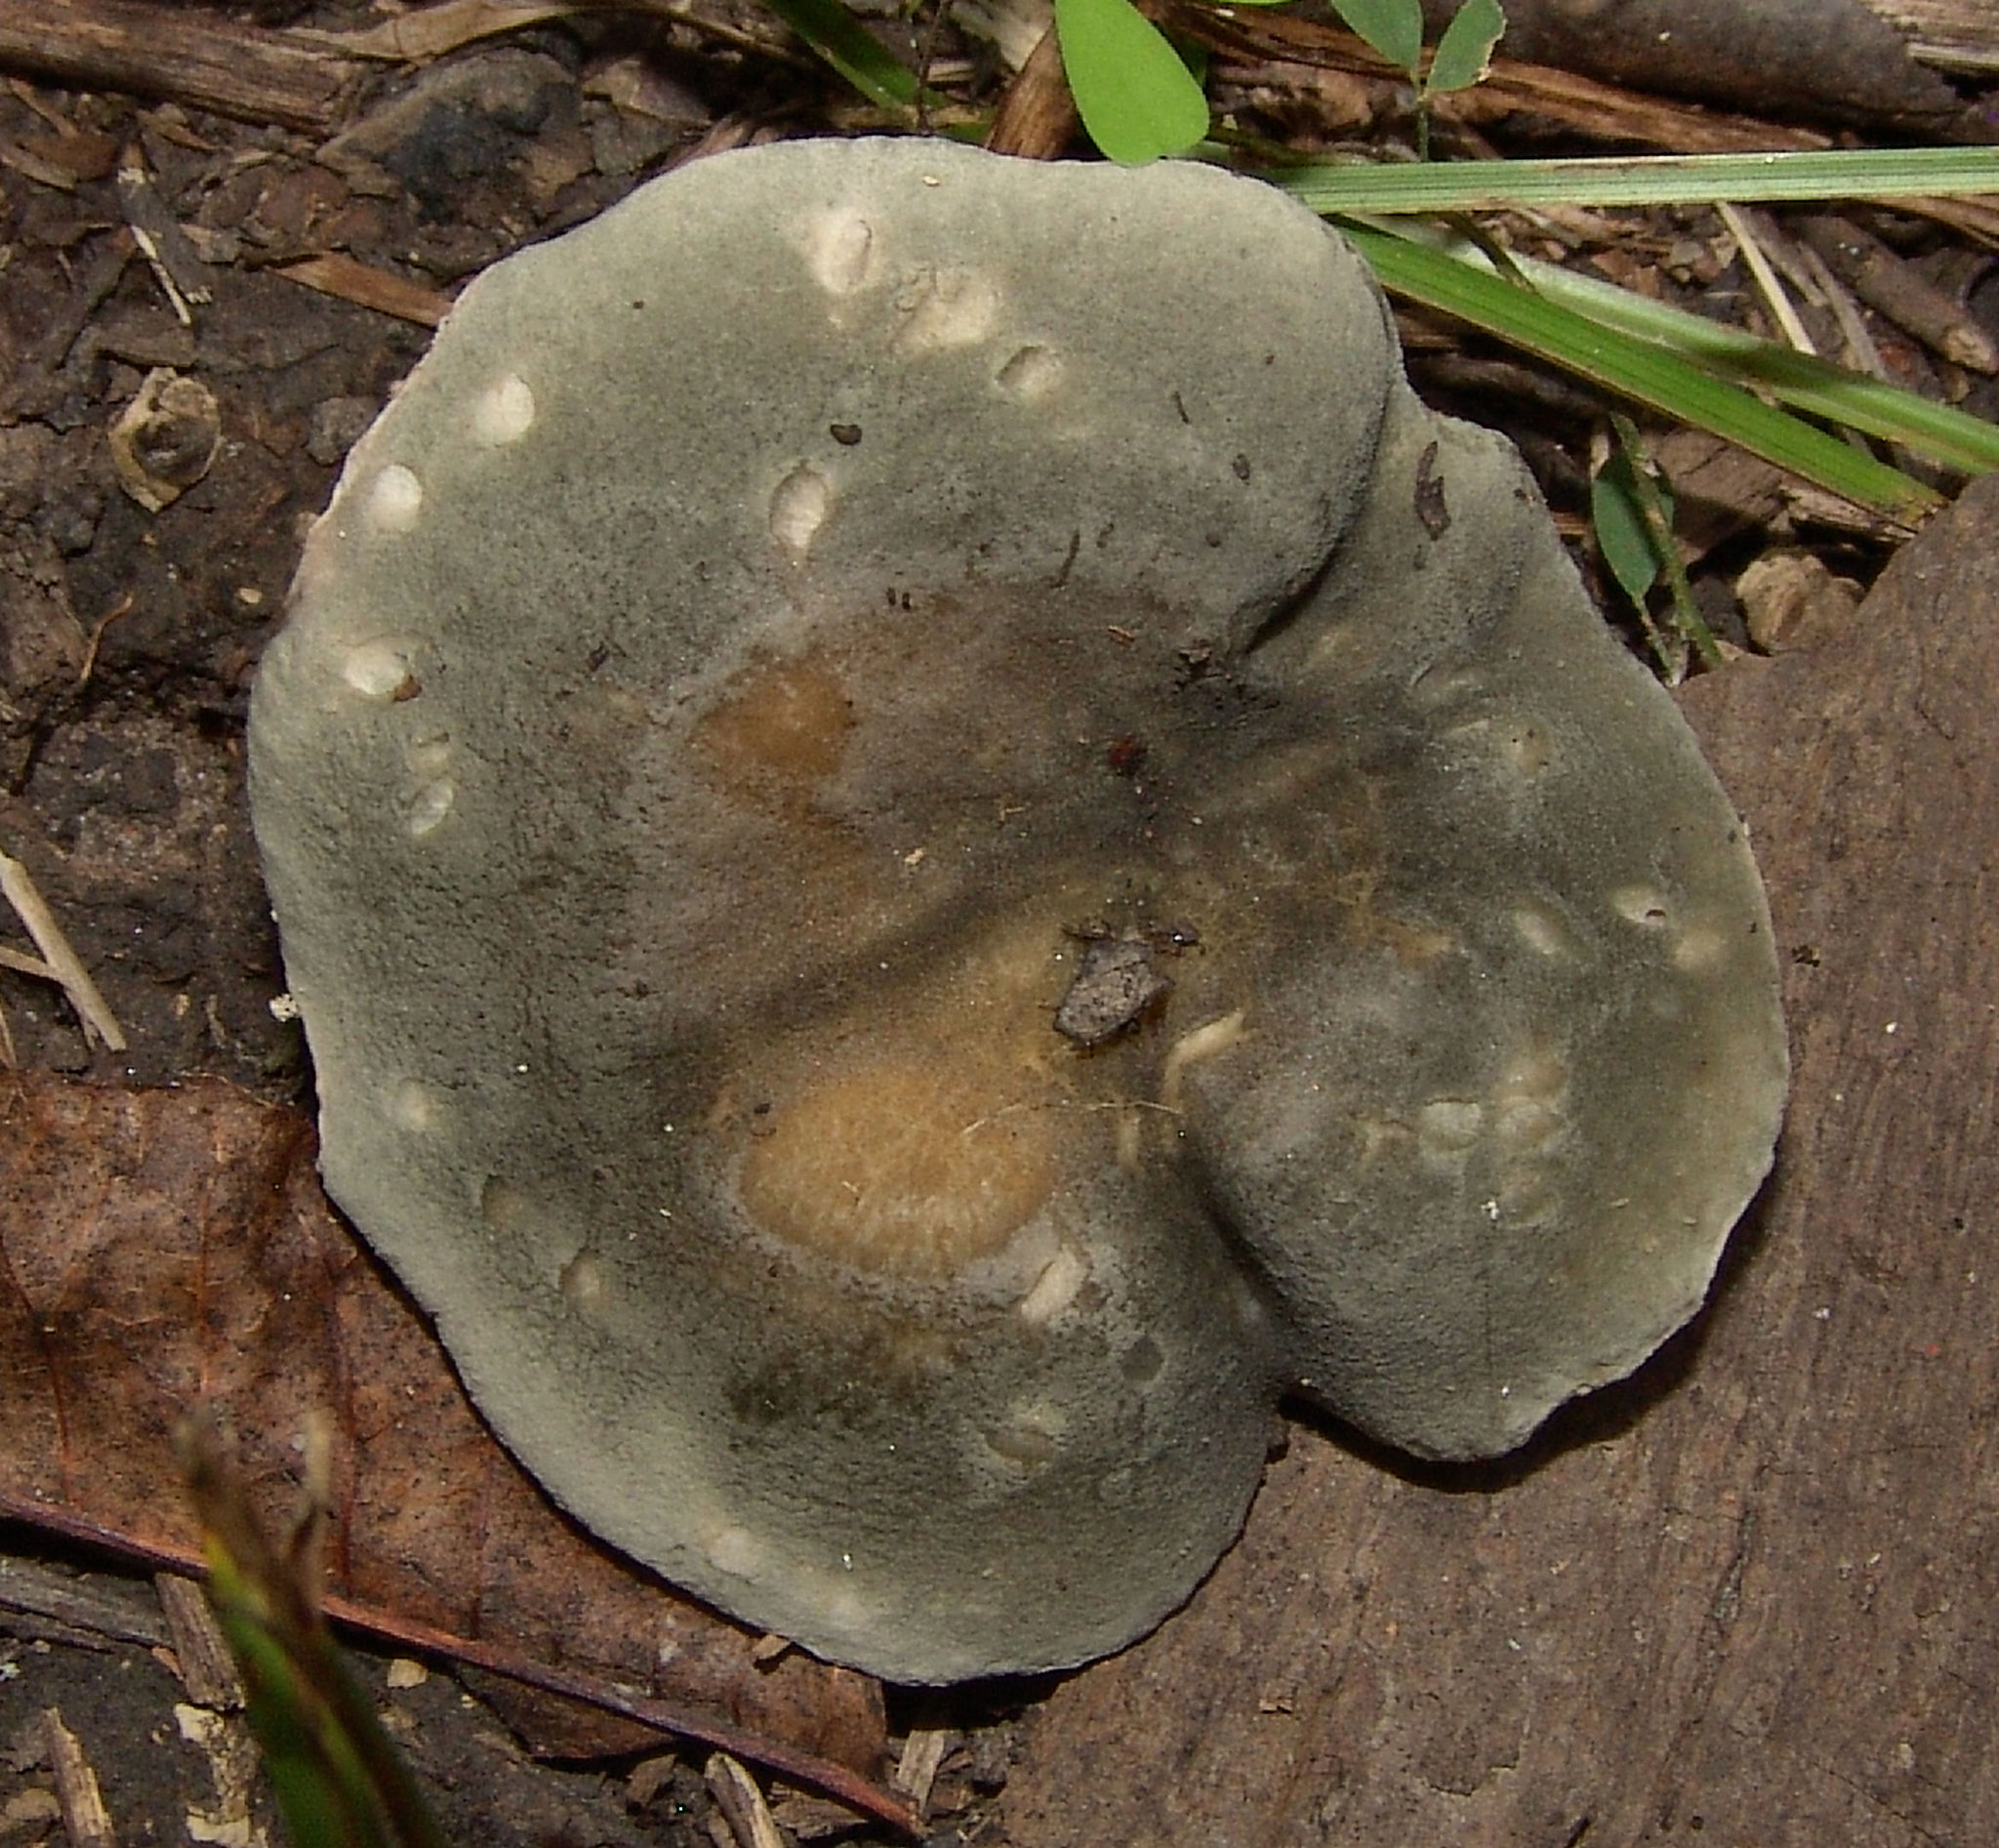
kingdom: Fungi
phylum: Basidiomycota
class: Agaricomycetes
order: Russulales
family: Russulaceae
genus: Russula
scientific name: Russula
